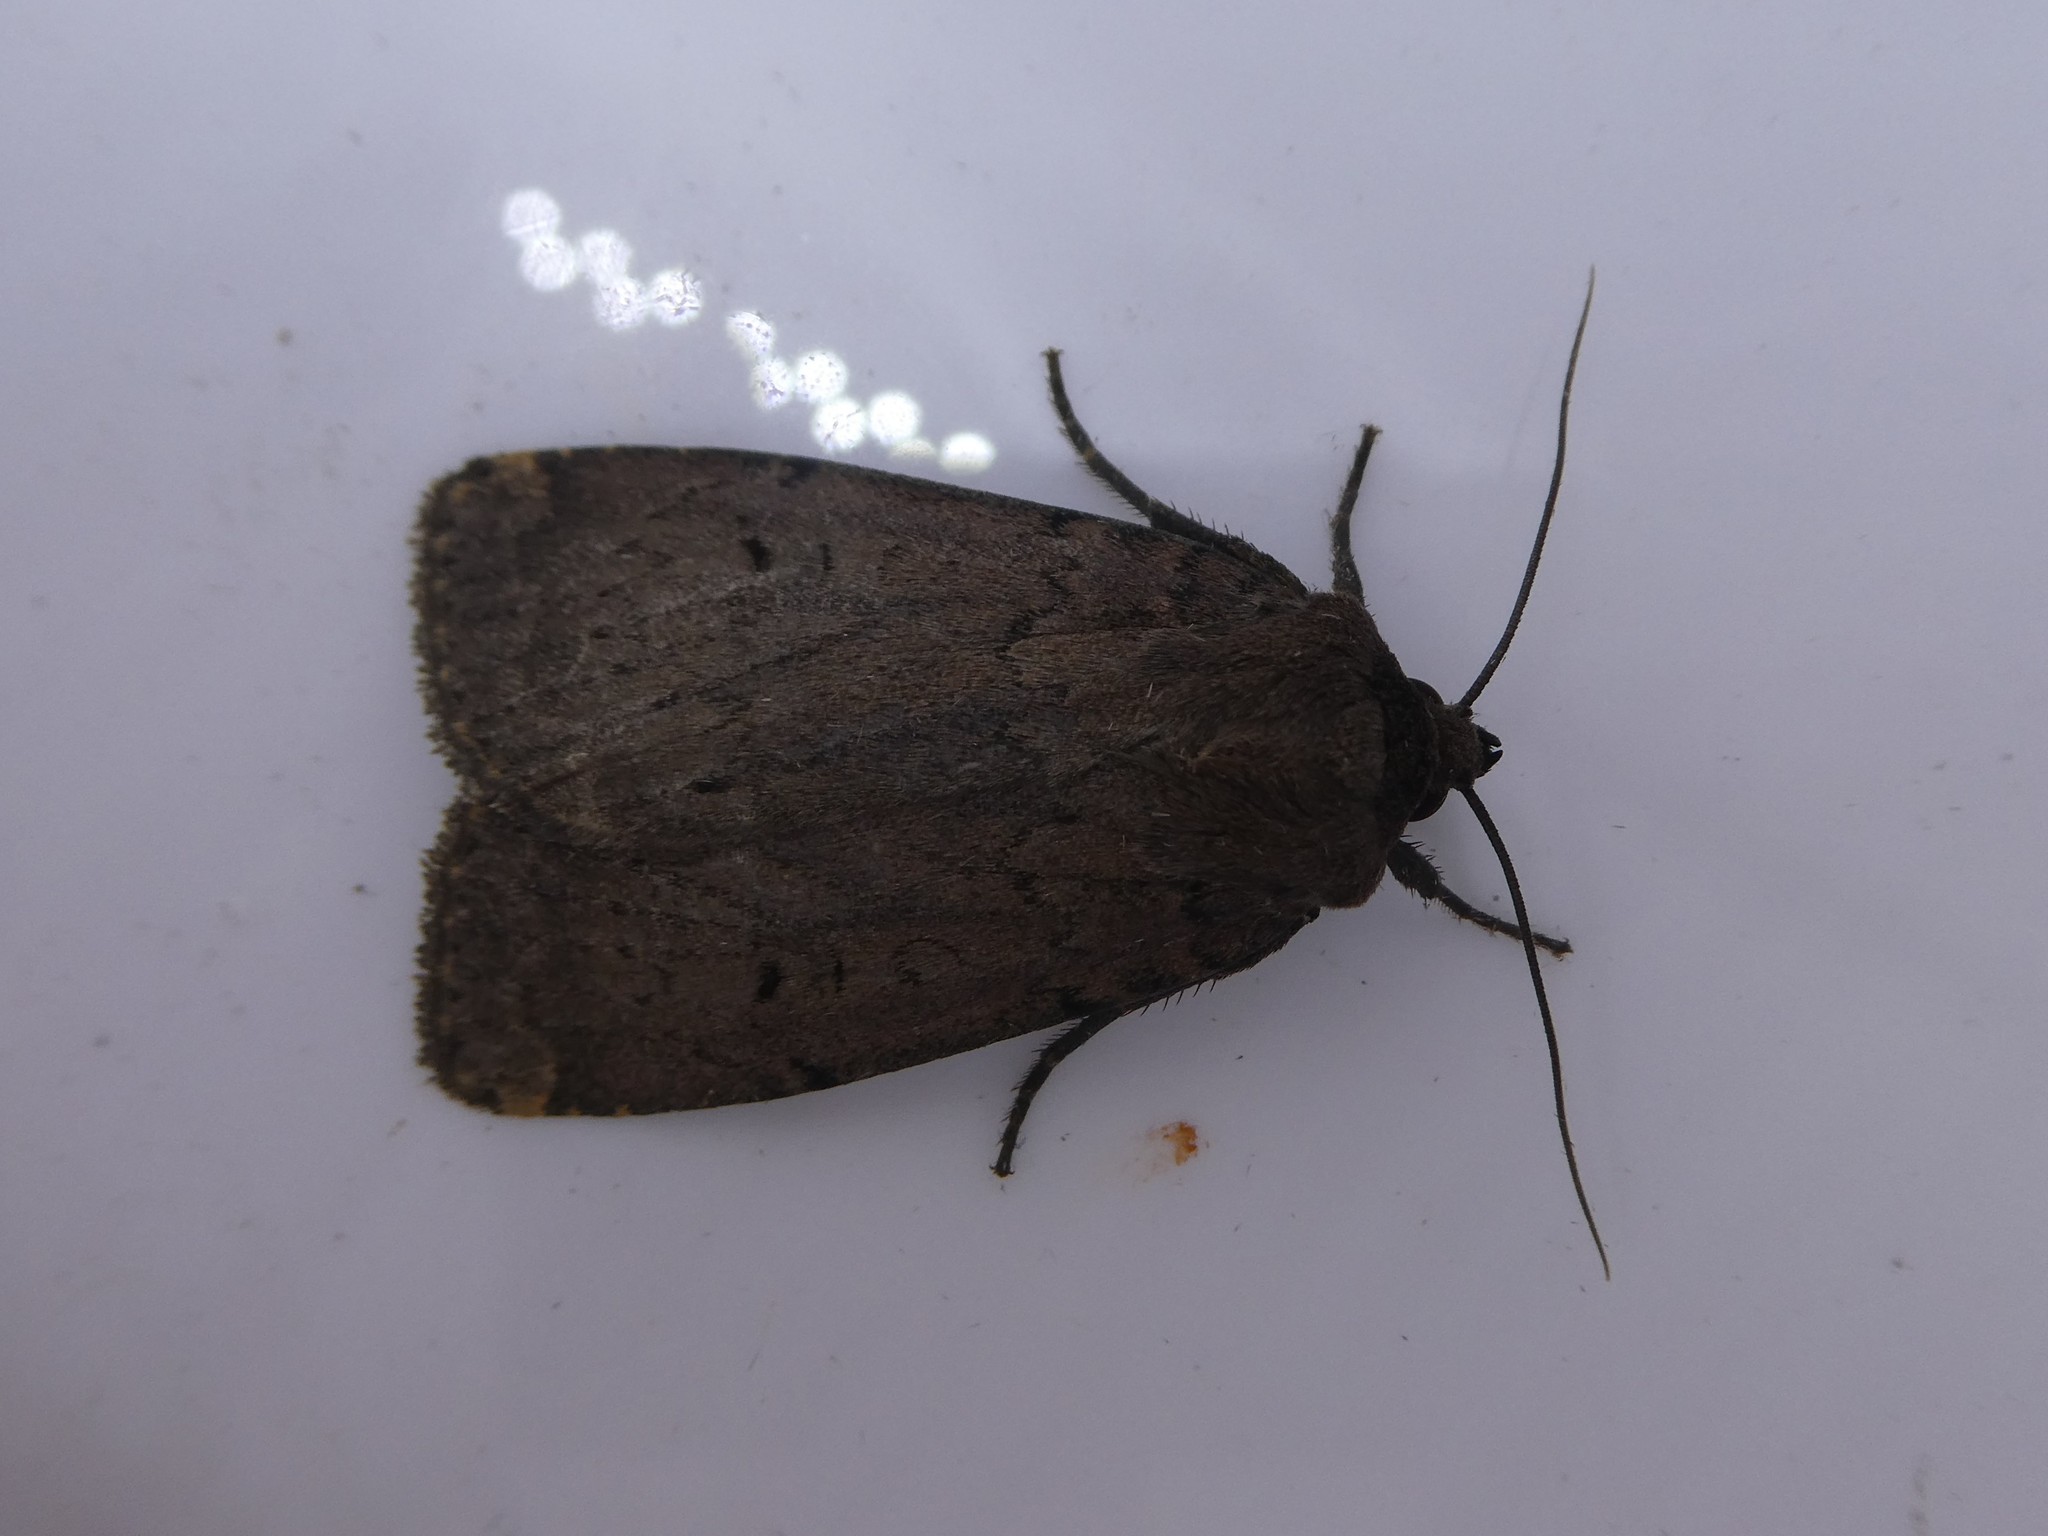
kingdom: Animalia
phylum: Arthropoda
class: Insecta
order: Lepidoptera
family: Noctuidae
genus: Graphiphora
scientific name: Graphiphora augur
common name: Double dart
